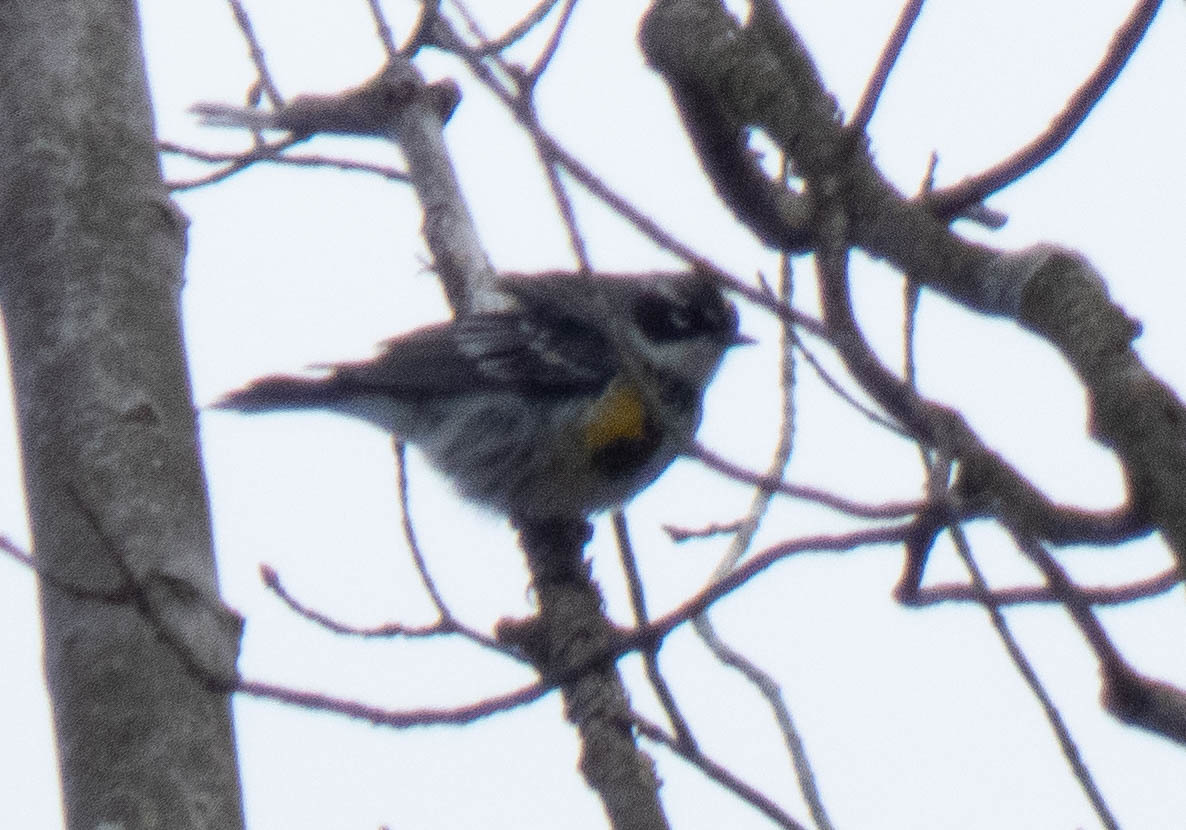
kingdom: Animalia
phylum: Chordata
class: Aves
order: Passeriformes
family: Parulidae
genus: Setophaga
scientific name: Setophaga coronata
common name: Myrtle warbler
